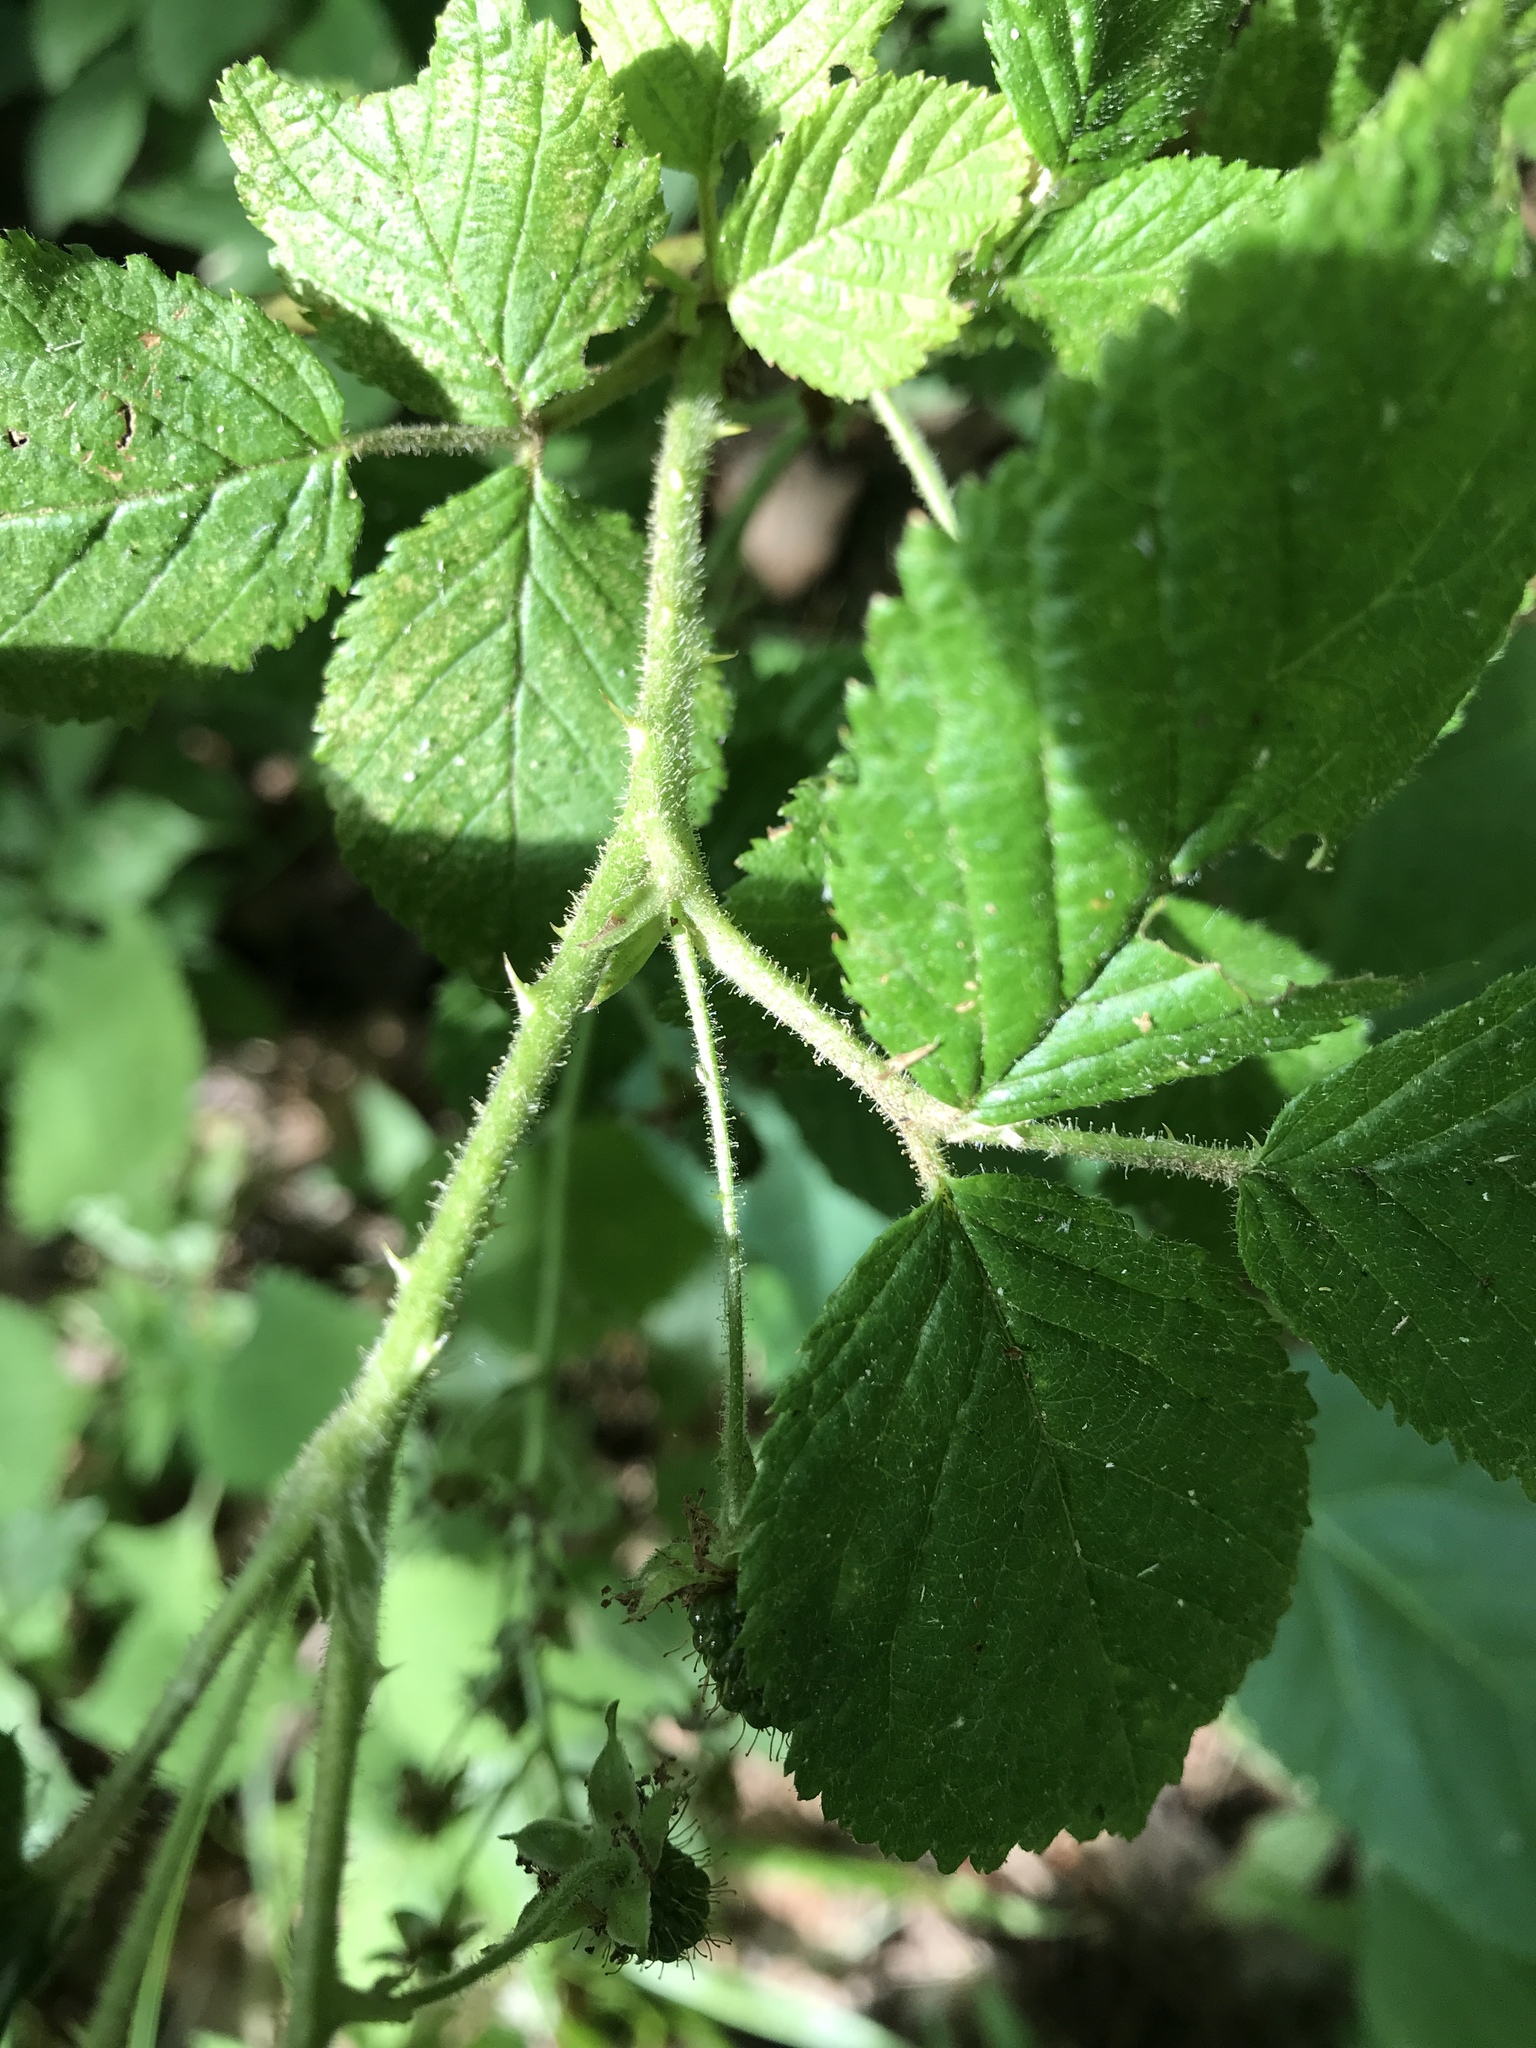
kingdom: Plantae
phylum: Tracheophyta
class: Magnoliopsida
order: Rosales
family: Rosaceae
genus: Rubus
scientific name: Rubus allegheniensis
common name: Allegheny blackberry
